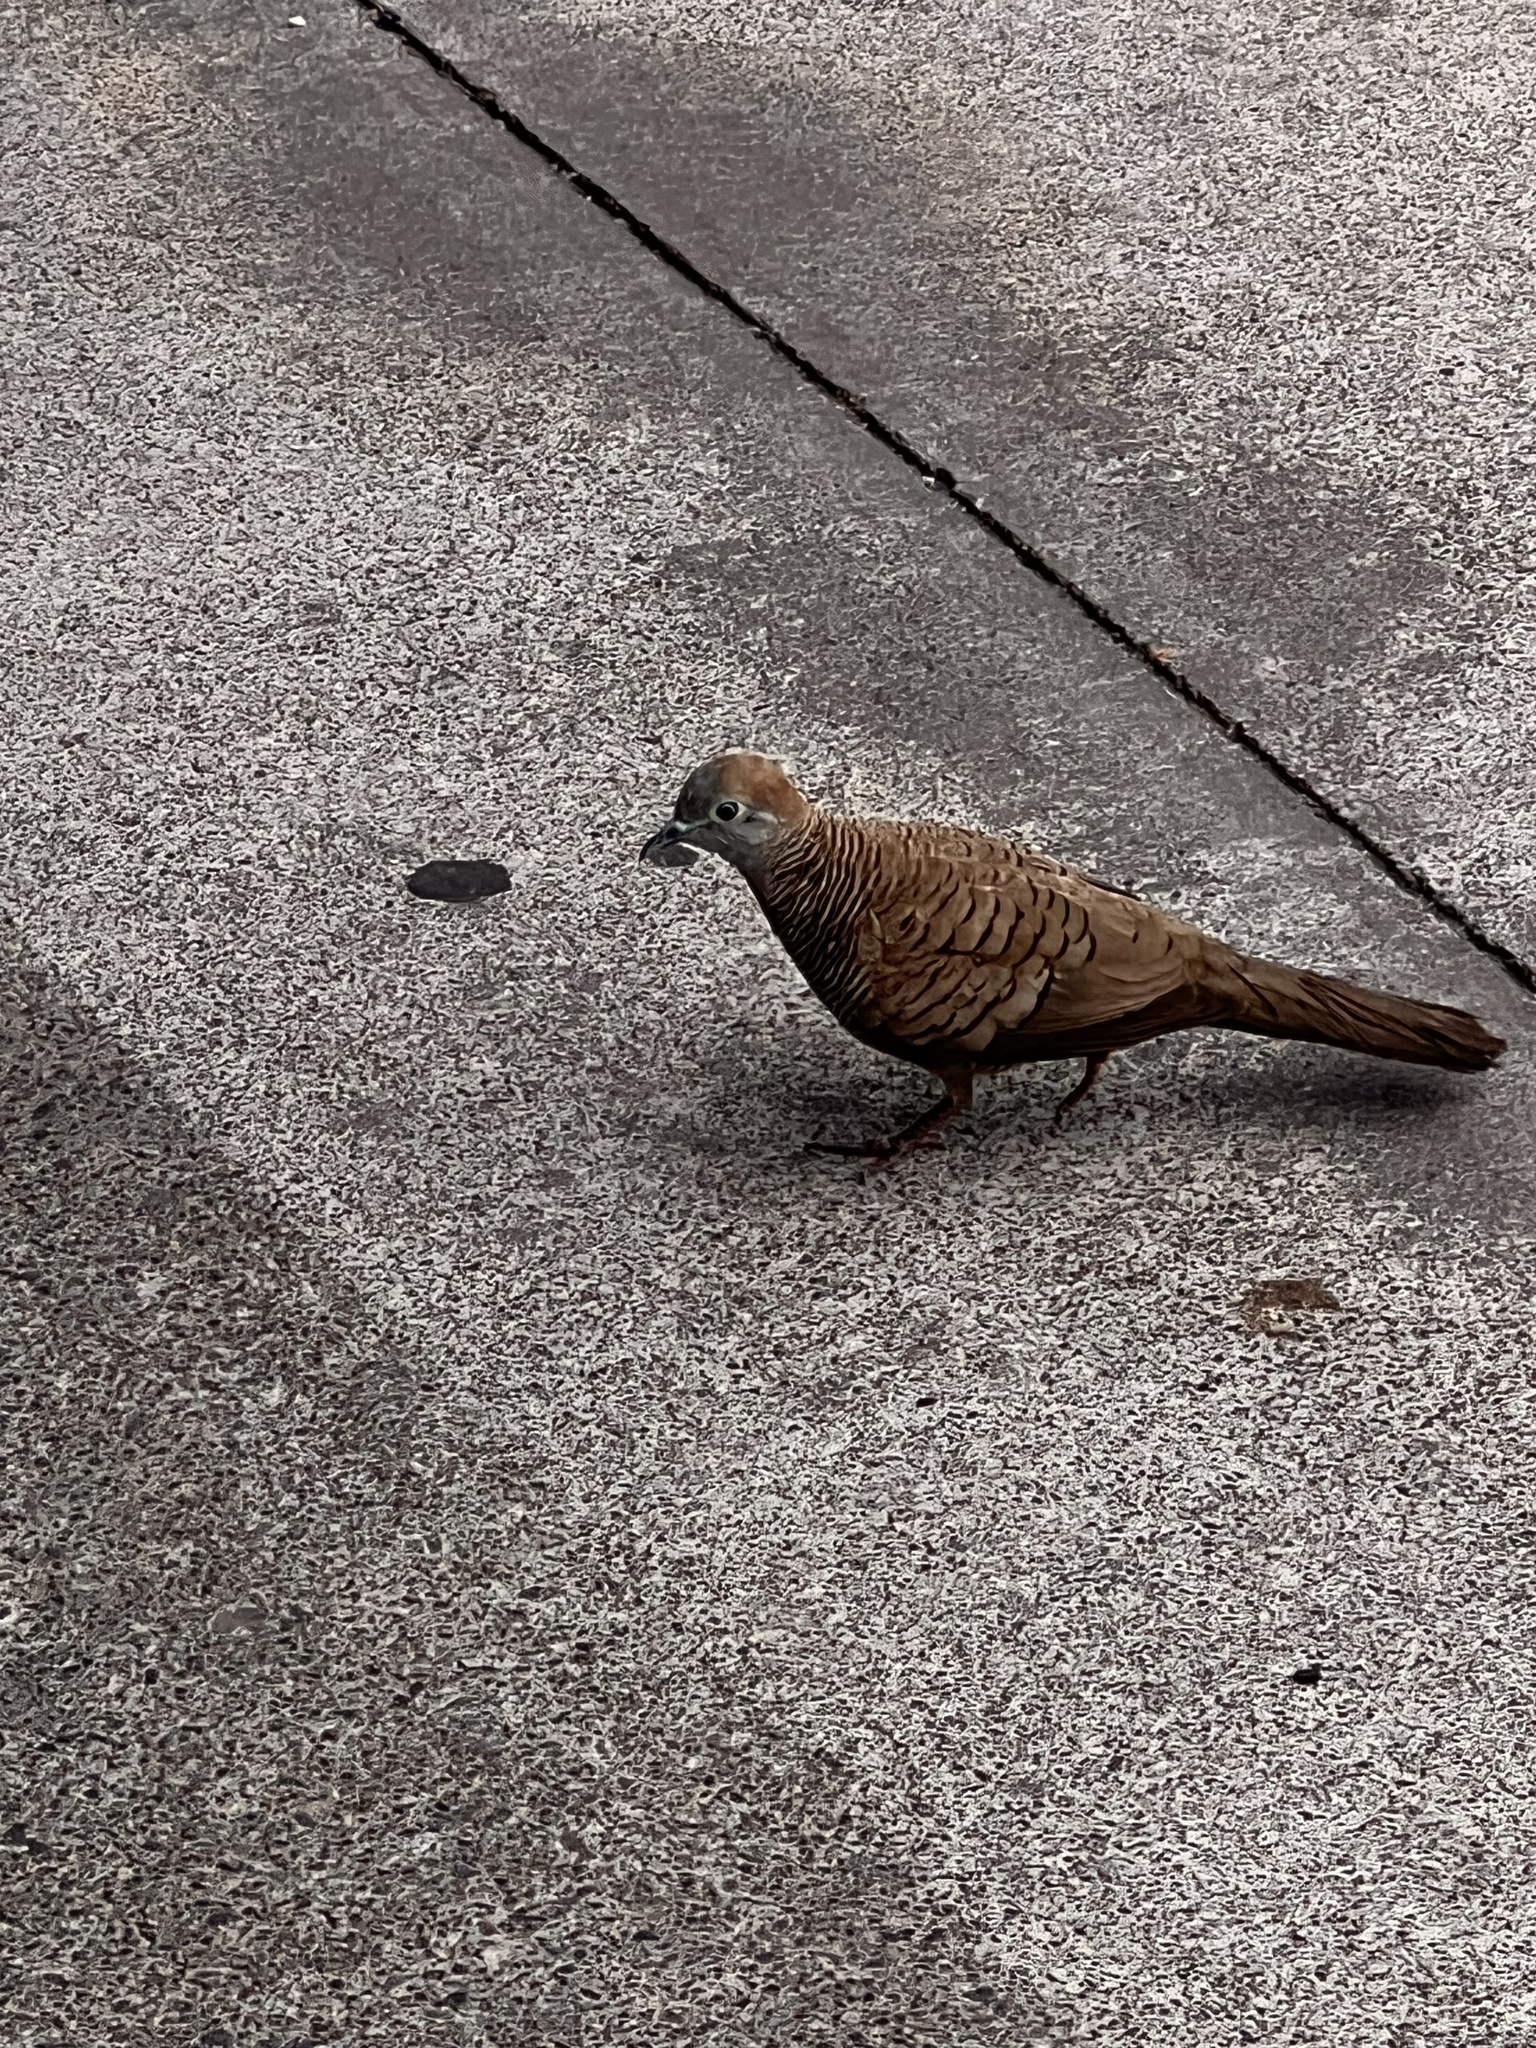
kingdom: Animalia
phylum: Chordata
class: Aves
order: Columbiformes
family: Columbidae
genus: Geopelia
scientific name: Geopelia striata
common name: Zebra dove
